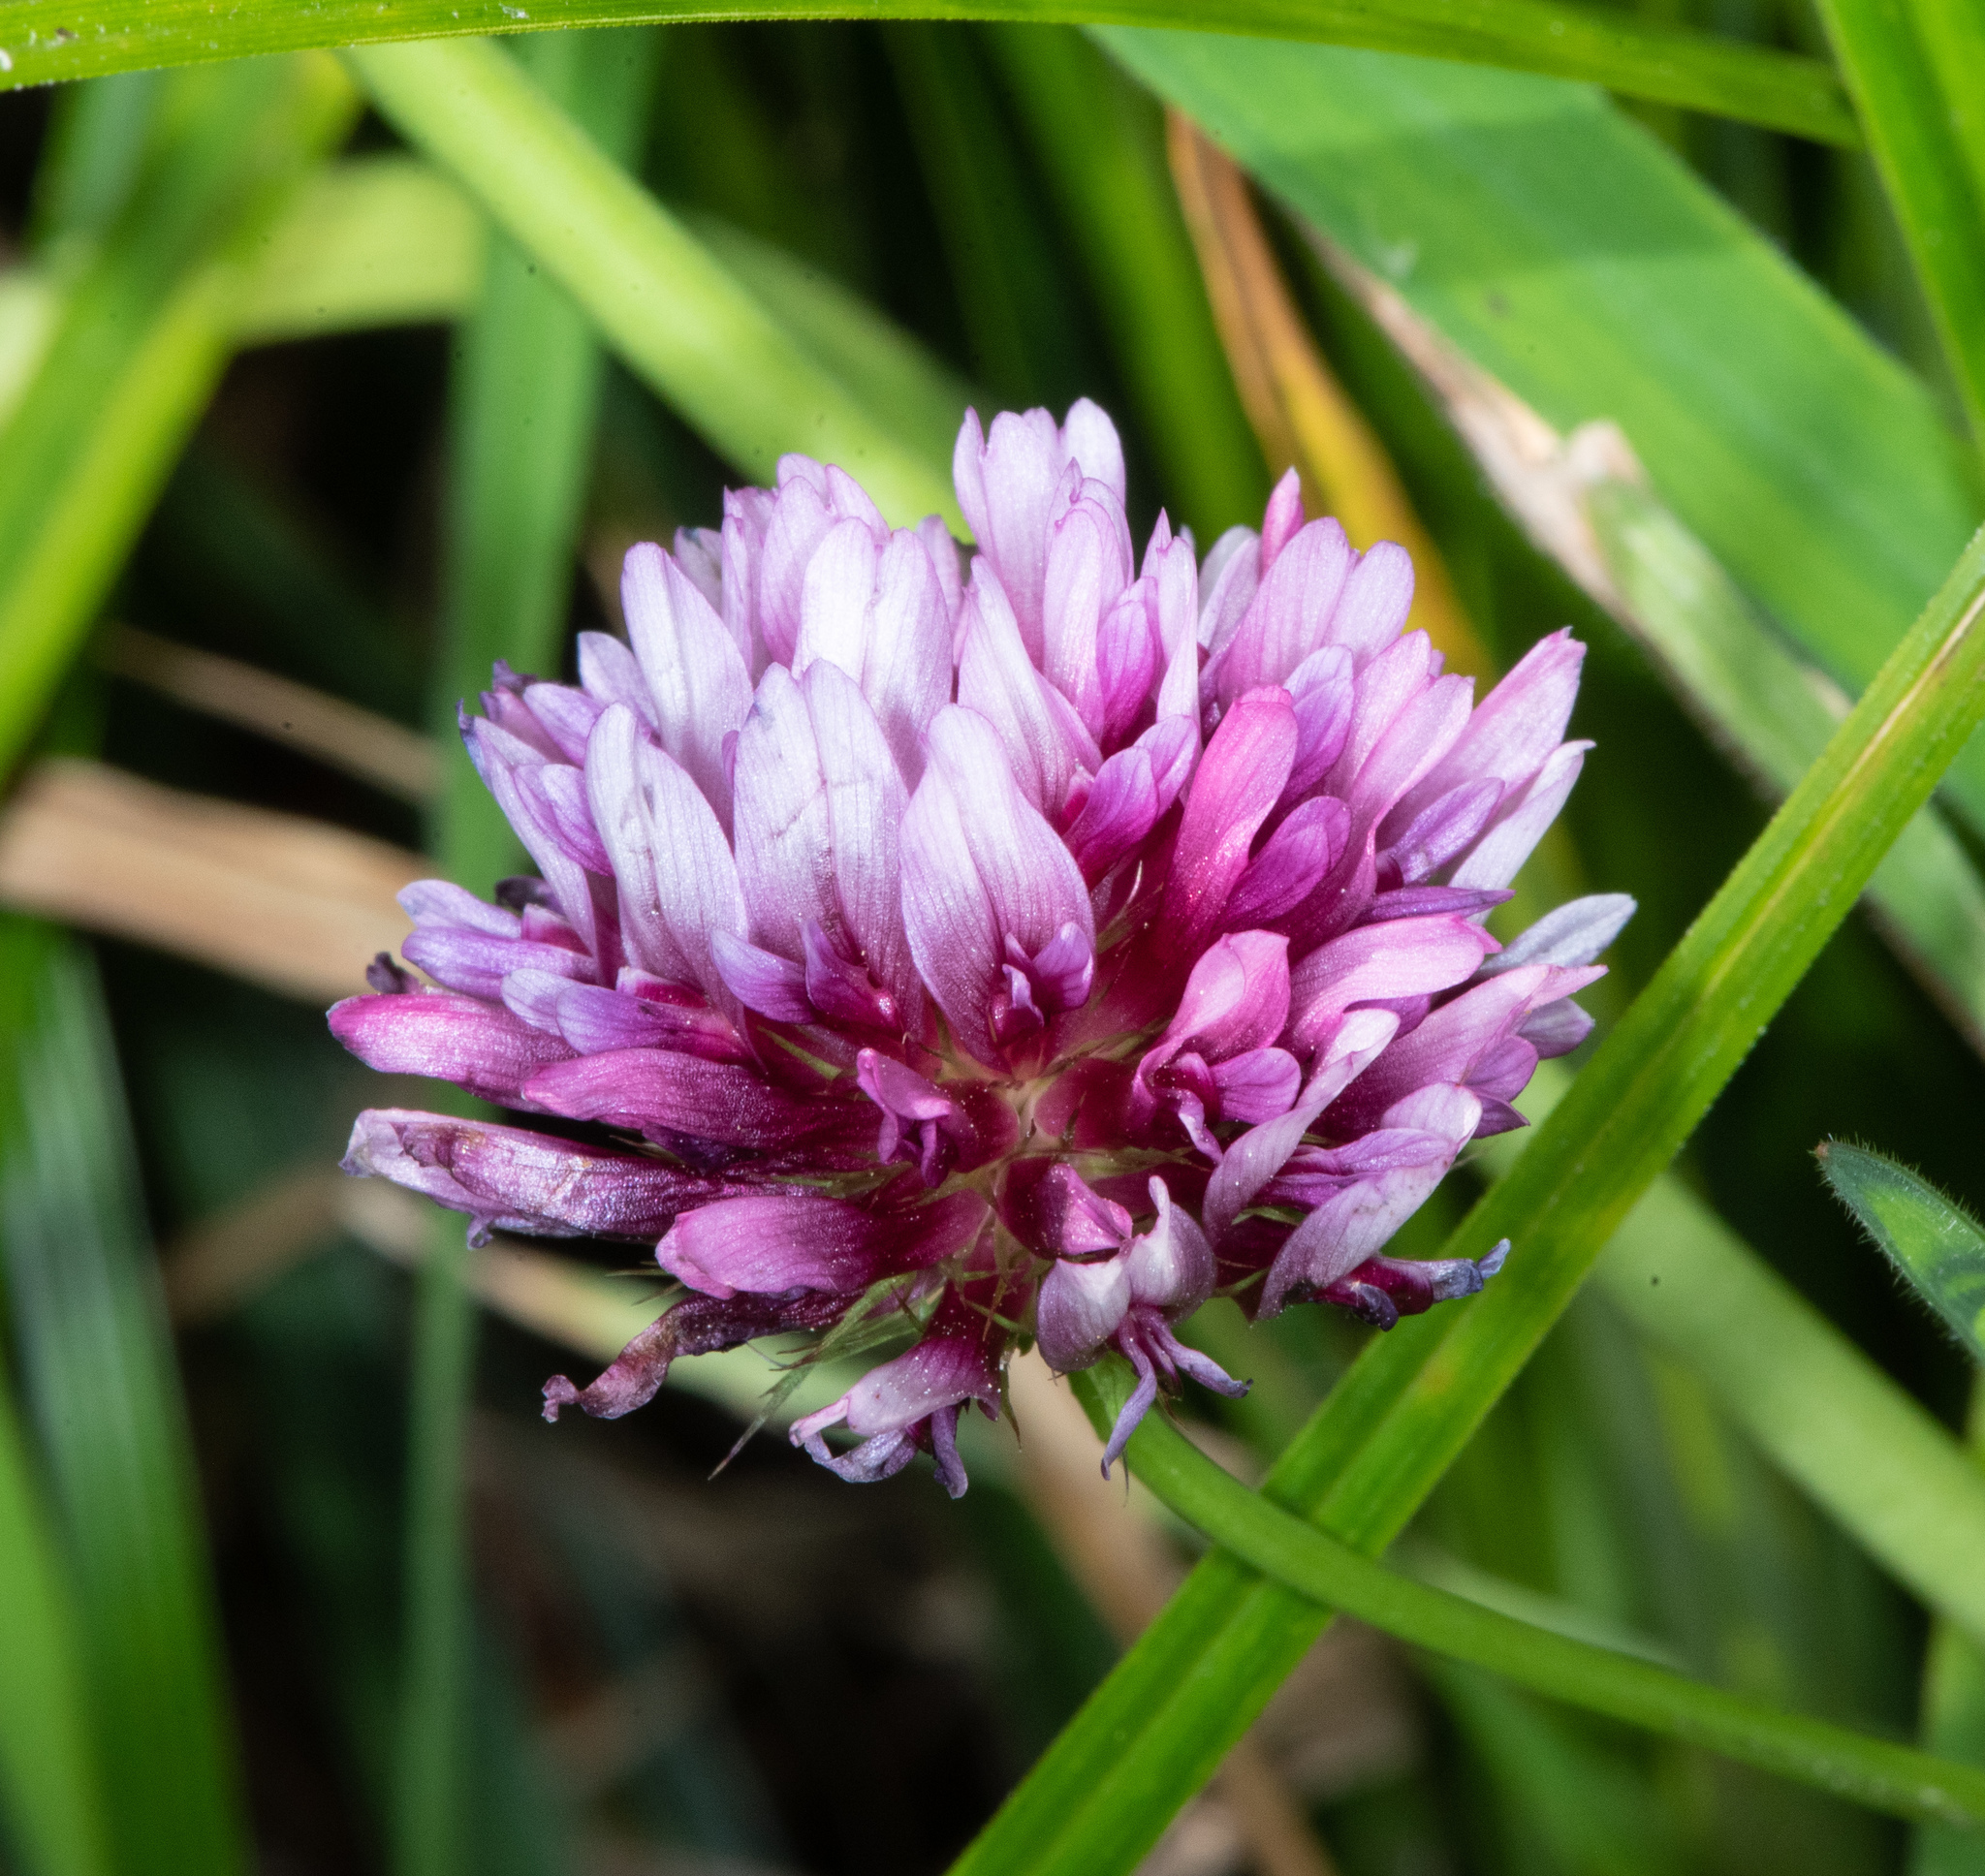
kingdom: Plantae
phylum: Tracheophyta
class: Magnoliopsida
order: Fabales
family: Fabaceae
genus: Trifolium
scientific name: Trifolium wormskioldii
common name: Springbank clover
